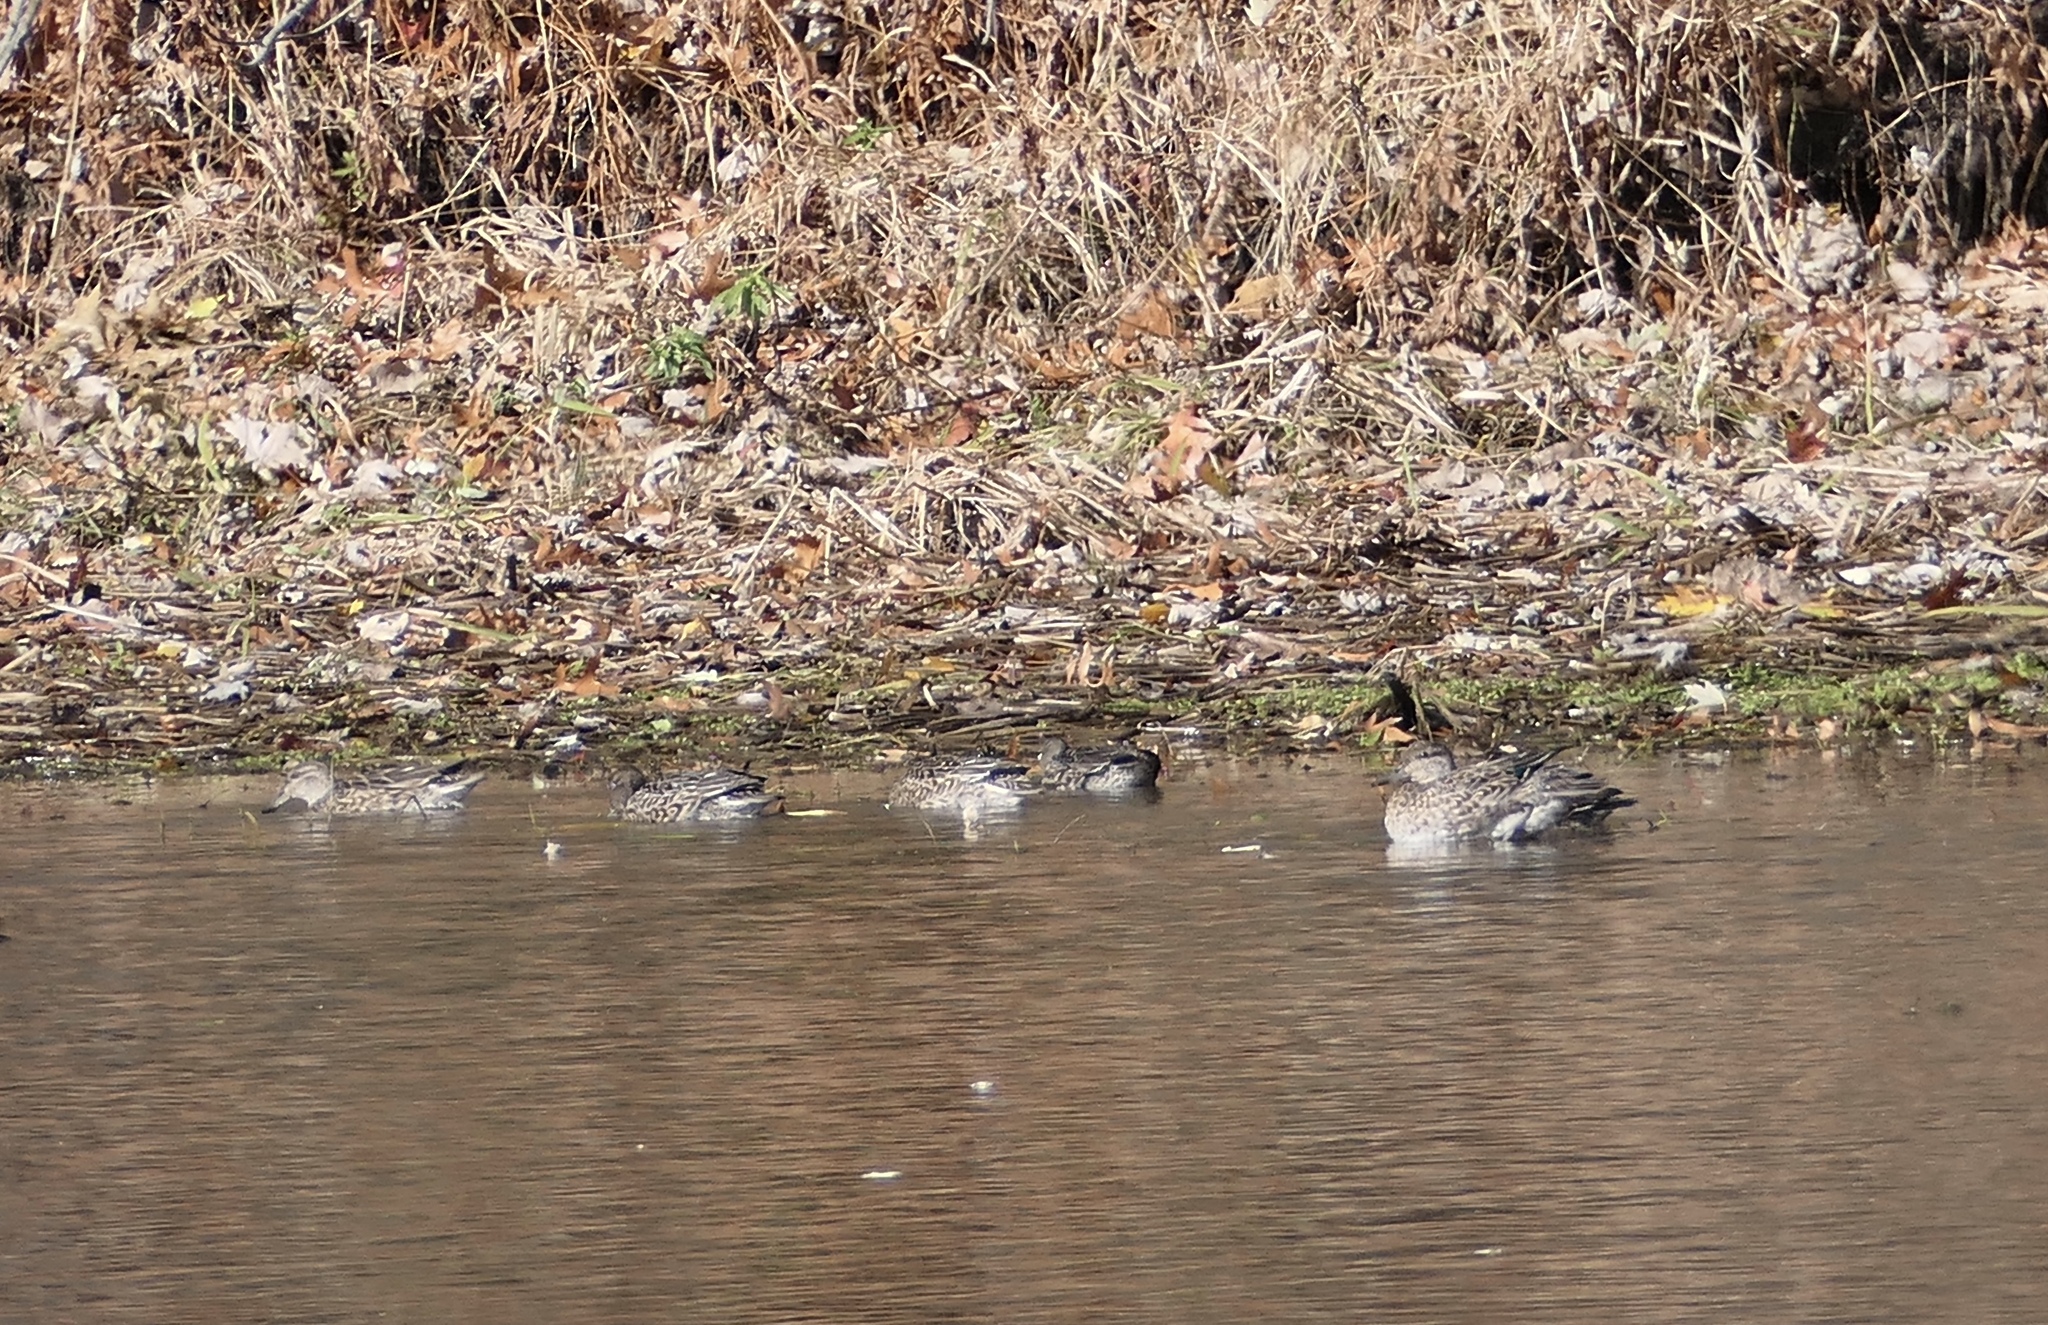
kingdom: Animalia
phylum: Chordata
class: Aves
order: Anseriformes
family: Anatidae
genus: Anas
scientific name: Anas crecca
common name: Eurasian teal
